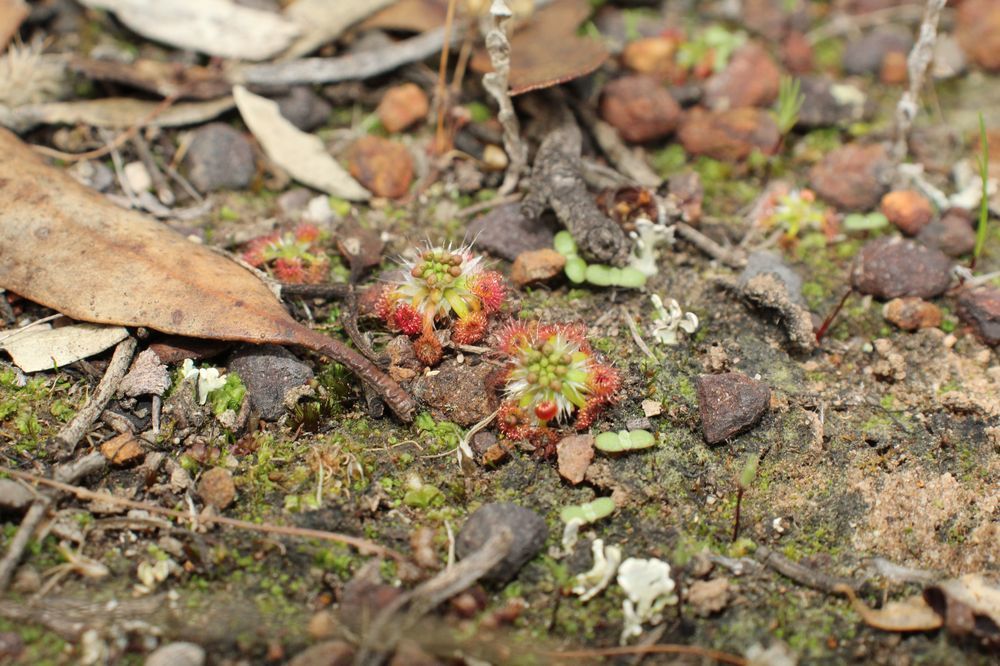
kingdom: Plantae
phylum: Tracheophyta
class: Magnoliopsida
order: Caryophyllales
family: Droseraceae
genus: Drosera
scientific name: Drosera androsacea
